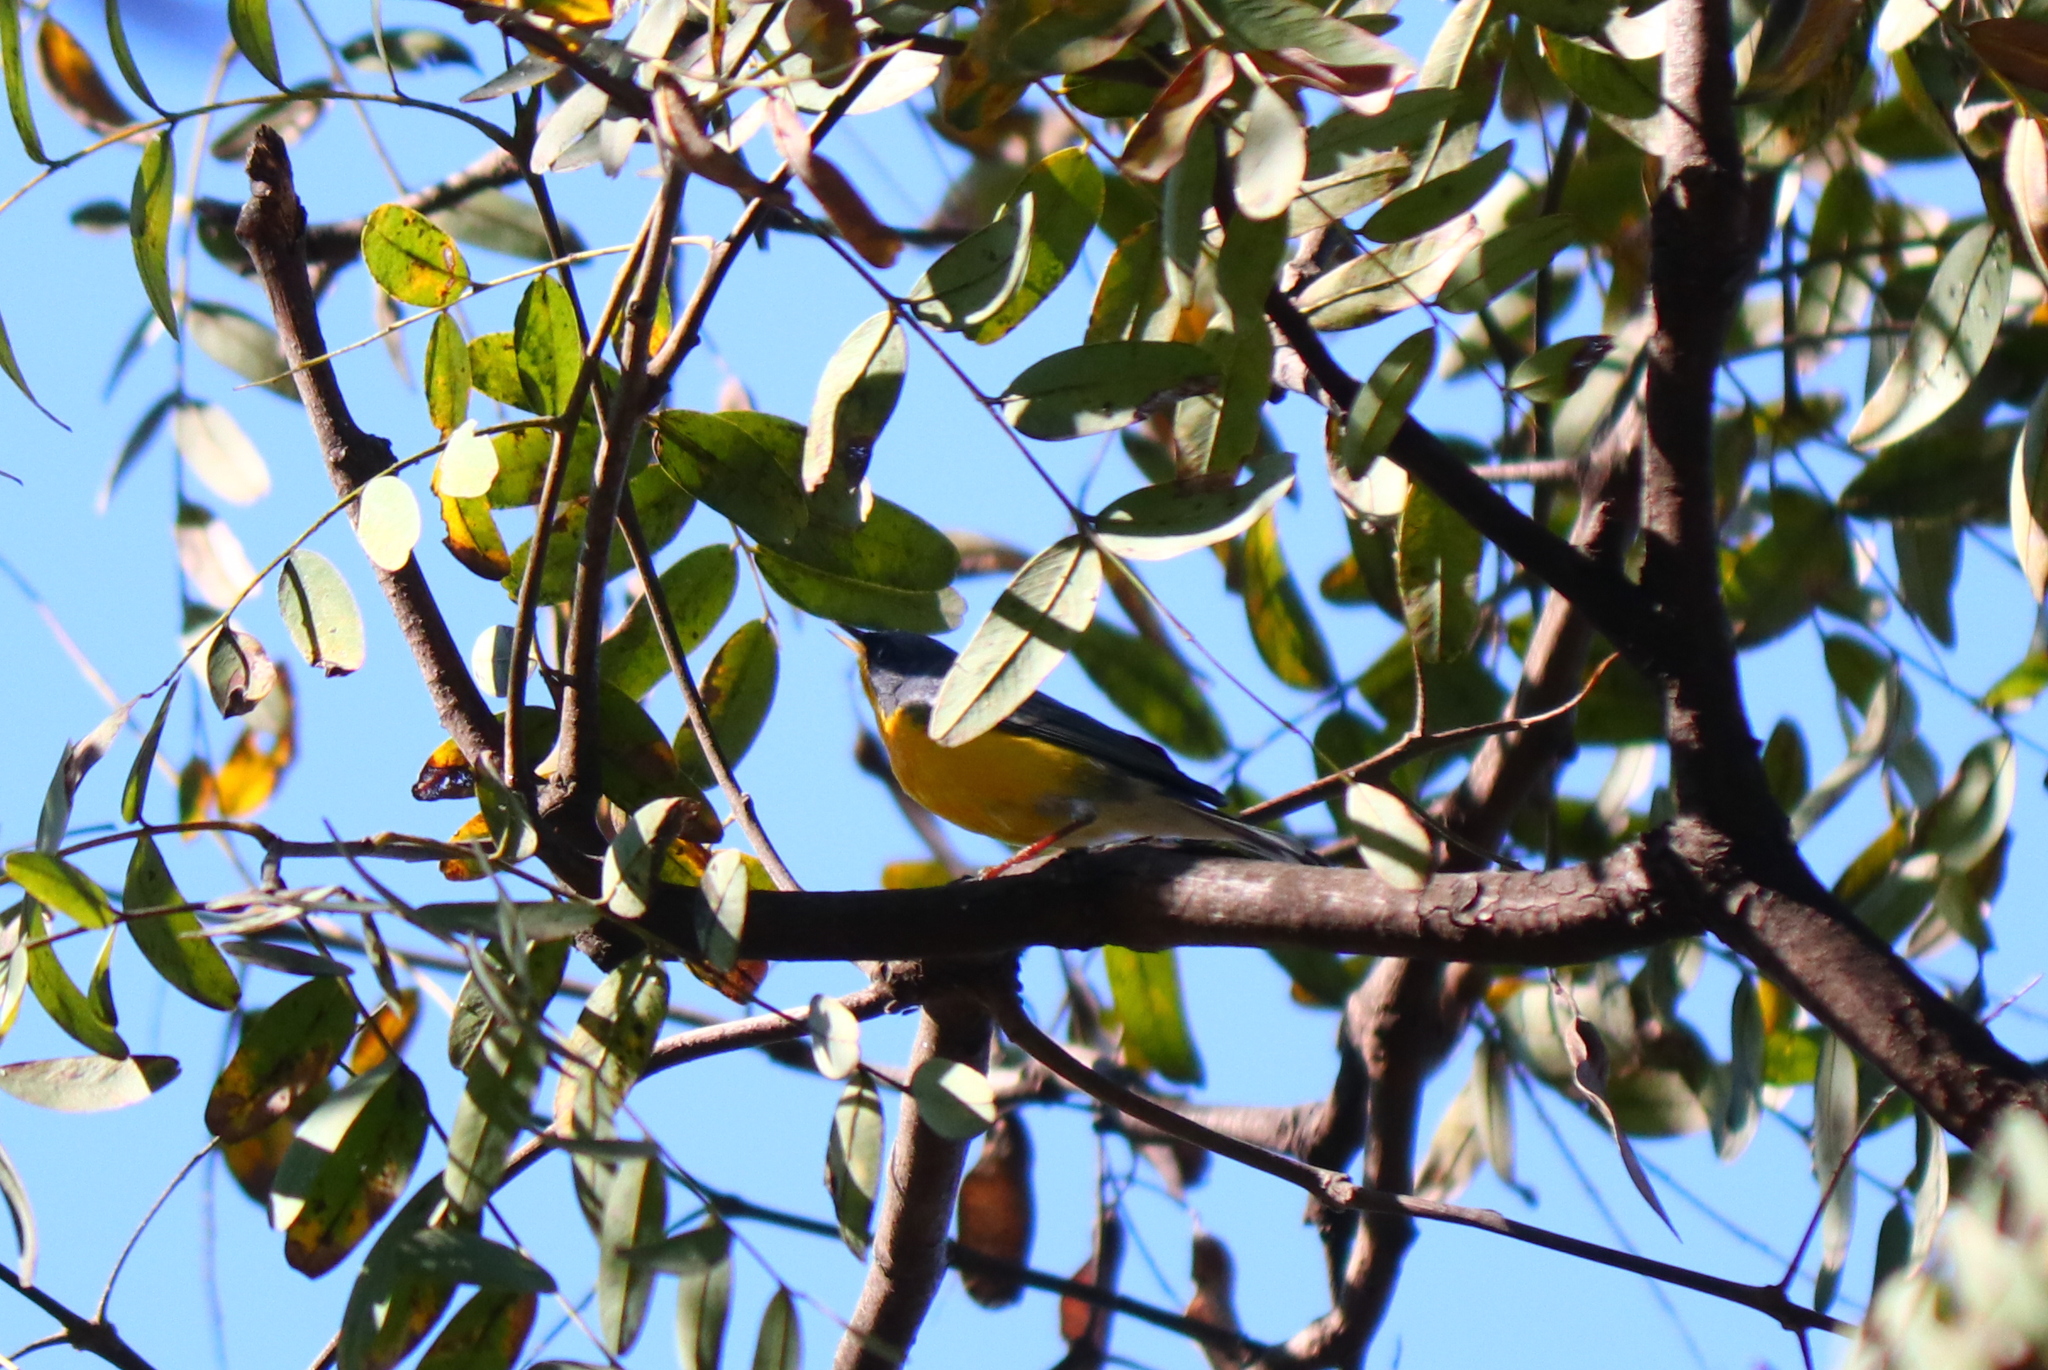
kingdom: Animalia
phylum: Chordata
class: Aves
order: Passeriformes
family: Parulidae
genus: Setophaga
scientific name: Setophaga pitiayumi
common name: Tropical parula
